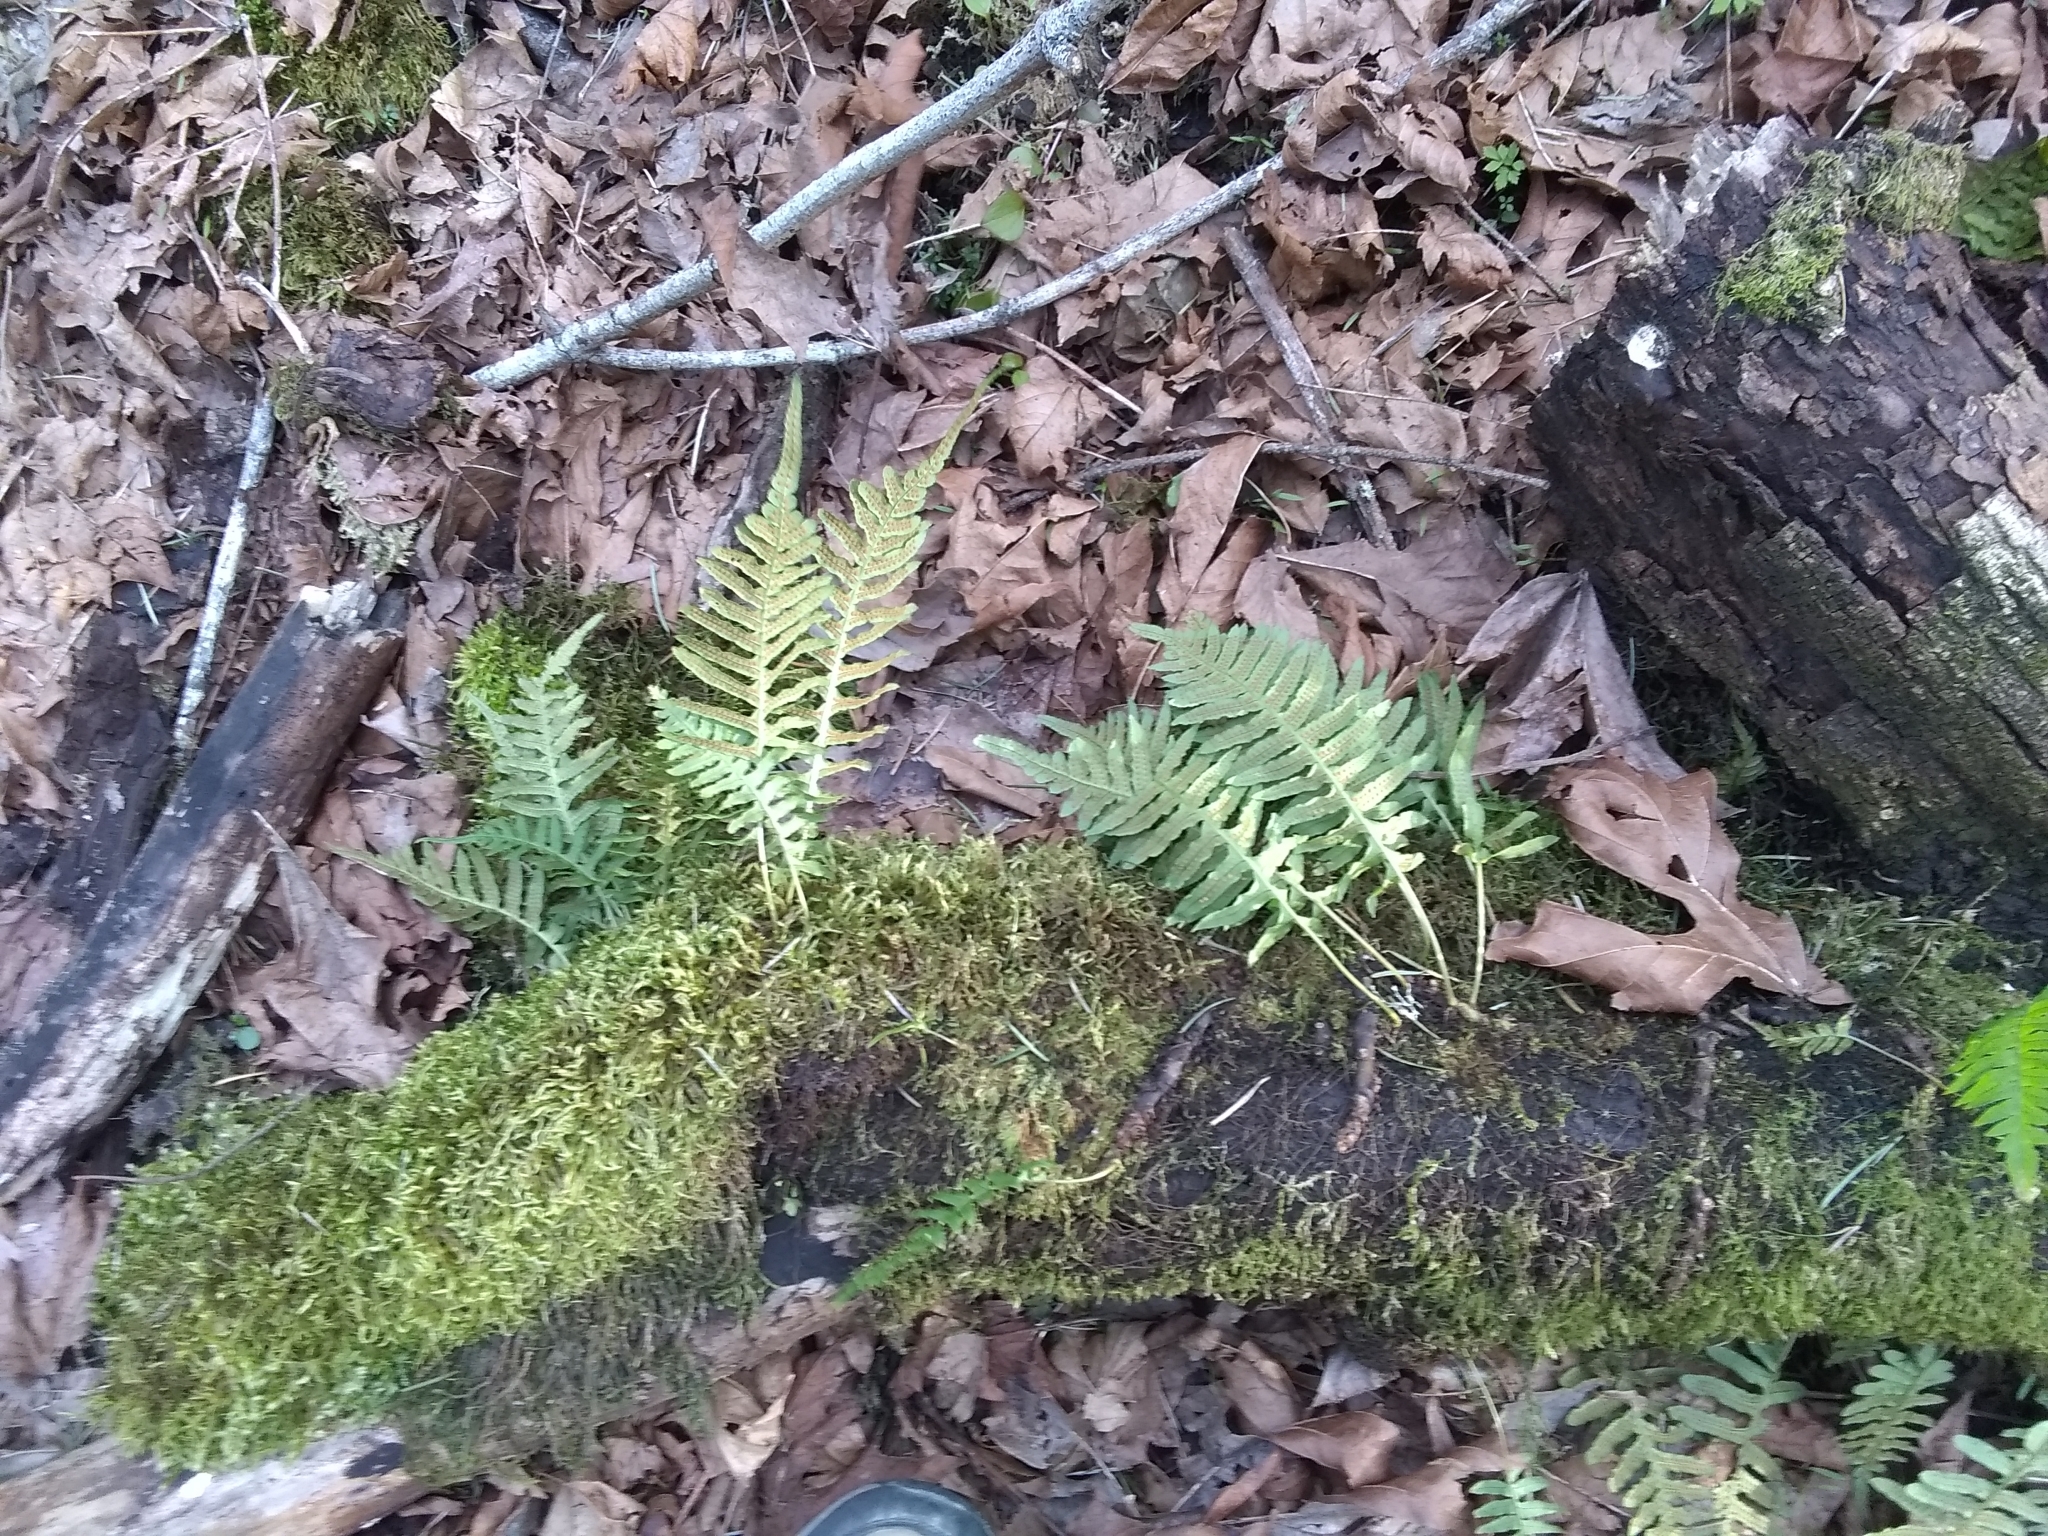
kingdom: Plantae
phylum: Tracheophyta
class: Polypodiopsida
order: Polypodiales
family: Polypodiaceae
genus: Polypodium
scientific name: Polypodium glycyrrhiza
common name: Licorice fern
